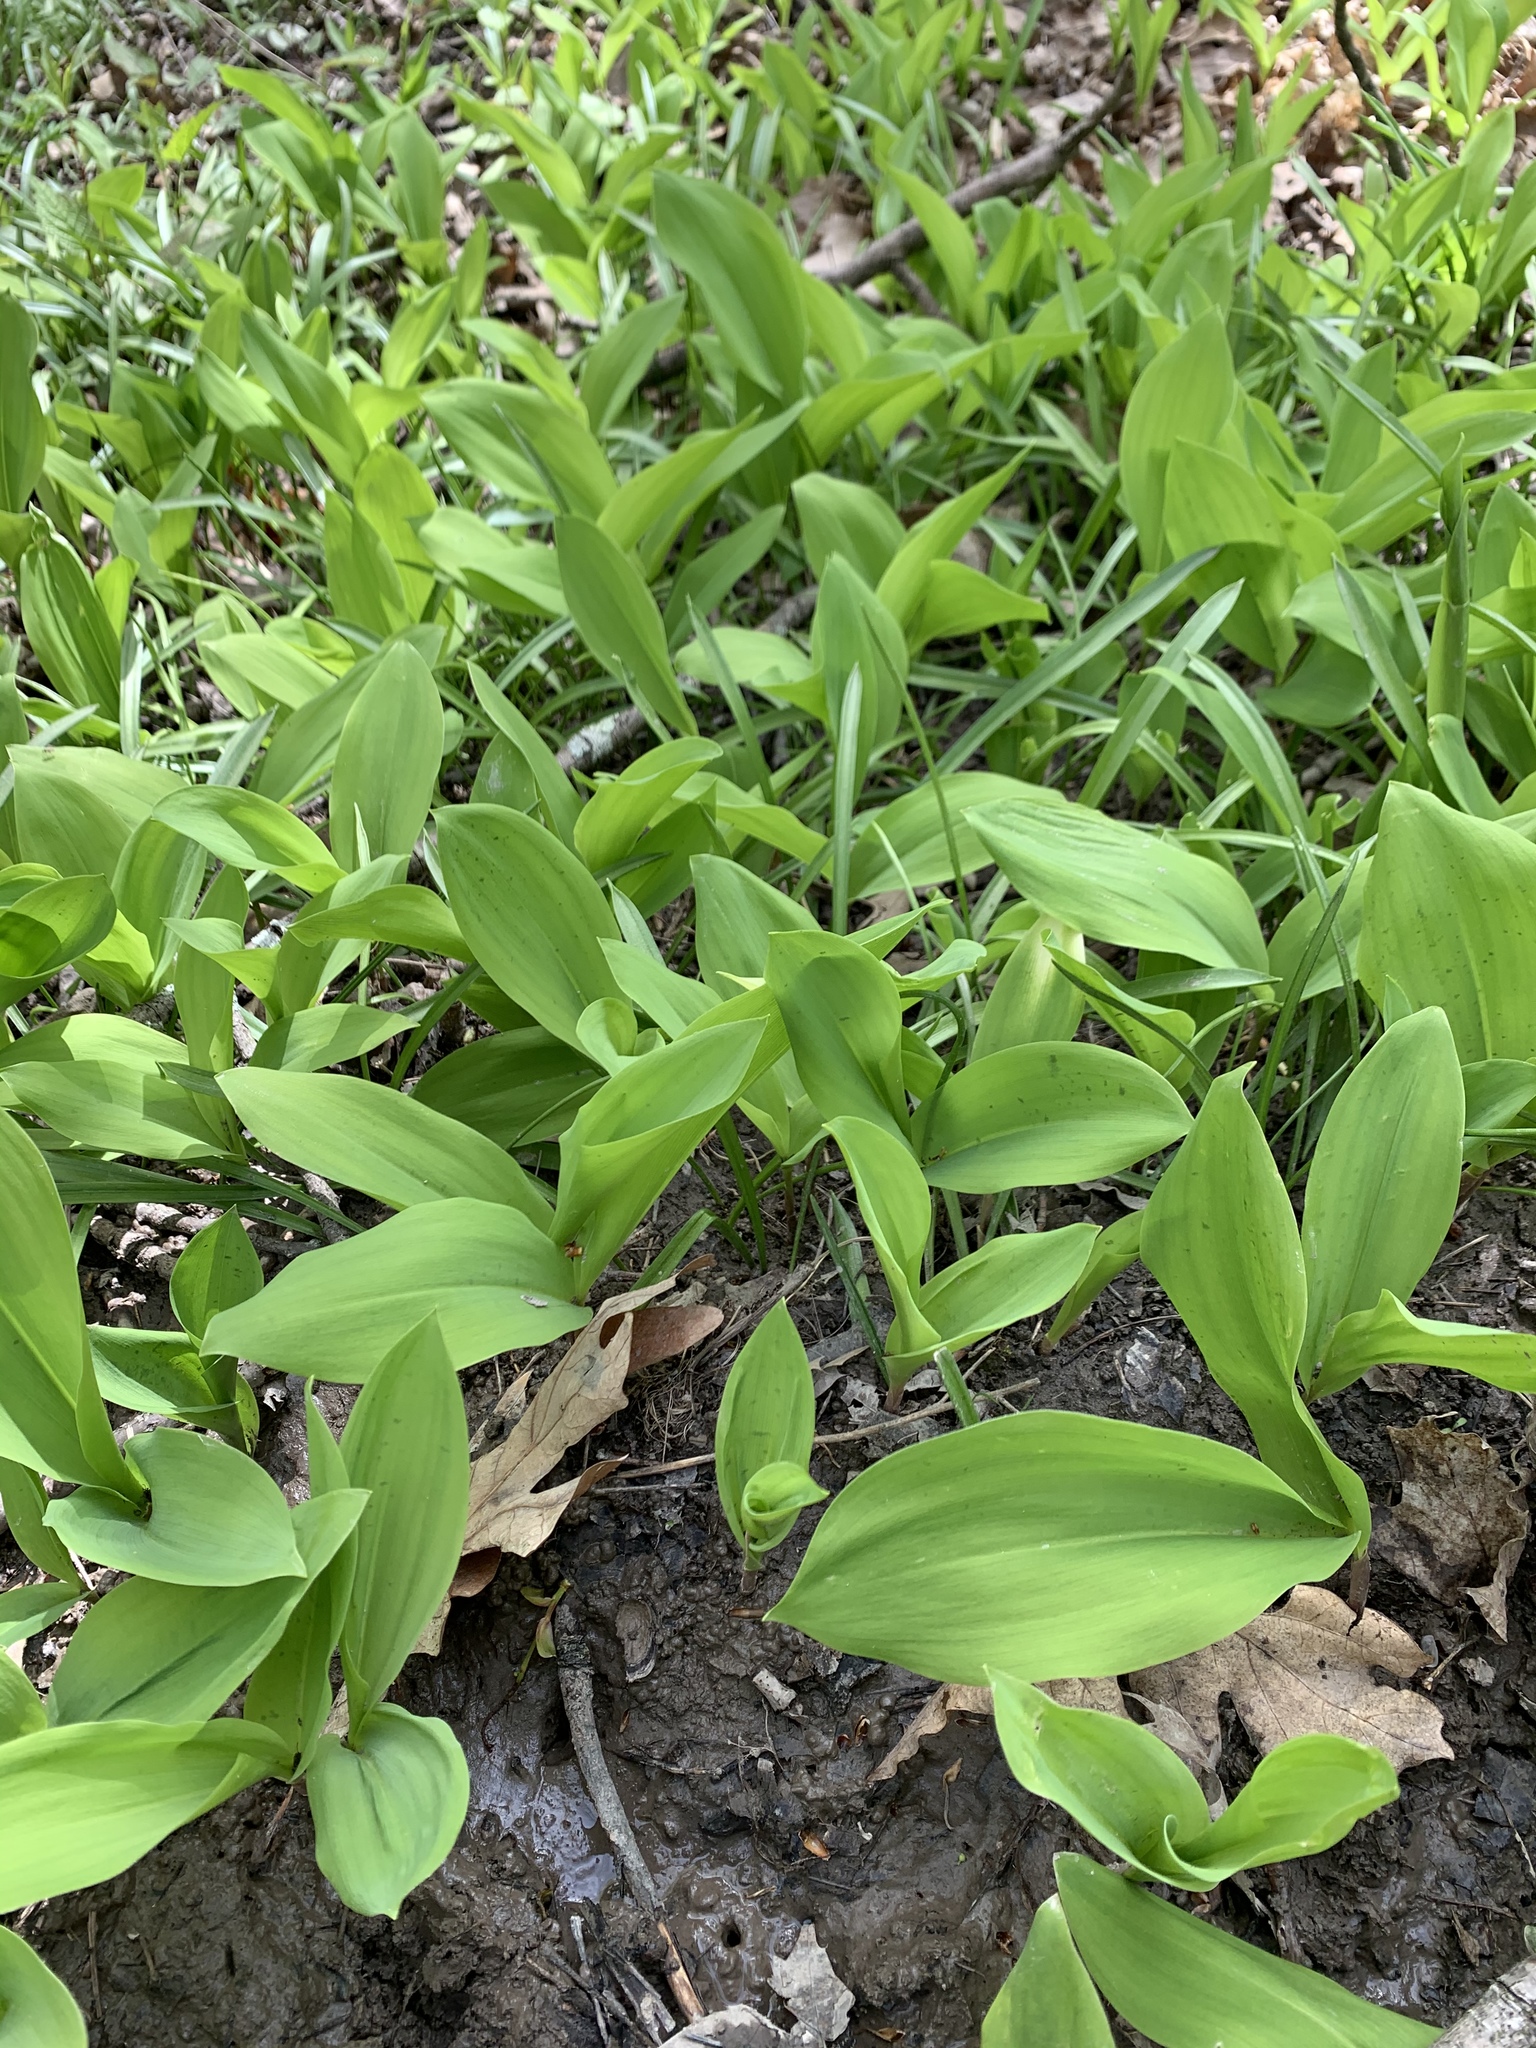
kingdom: Plantae
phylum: Tracheophyta
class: Liliopsida
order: Asparagales
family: Asparagaceae
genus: Convallaria
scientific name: Convallaria majalis
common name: Lily-of-the-valley
